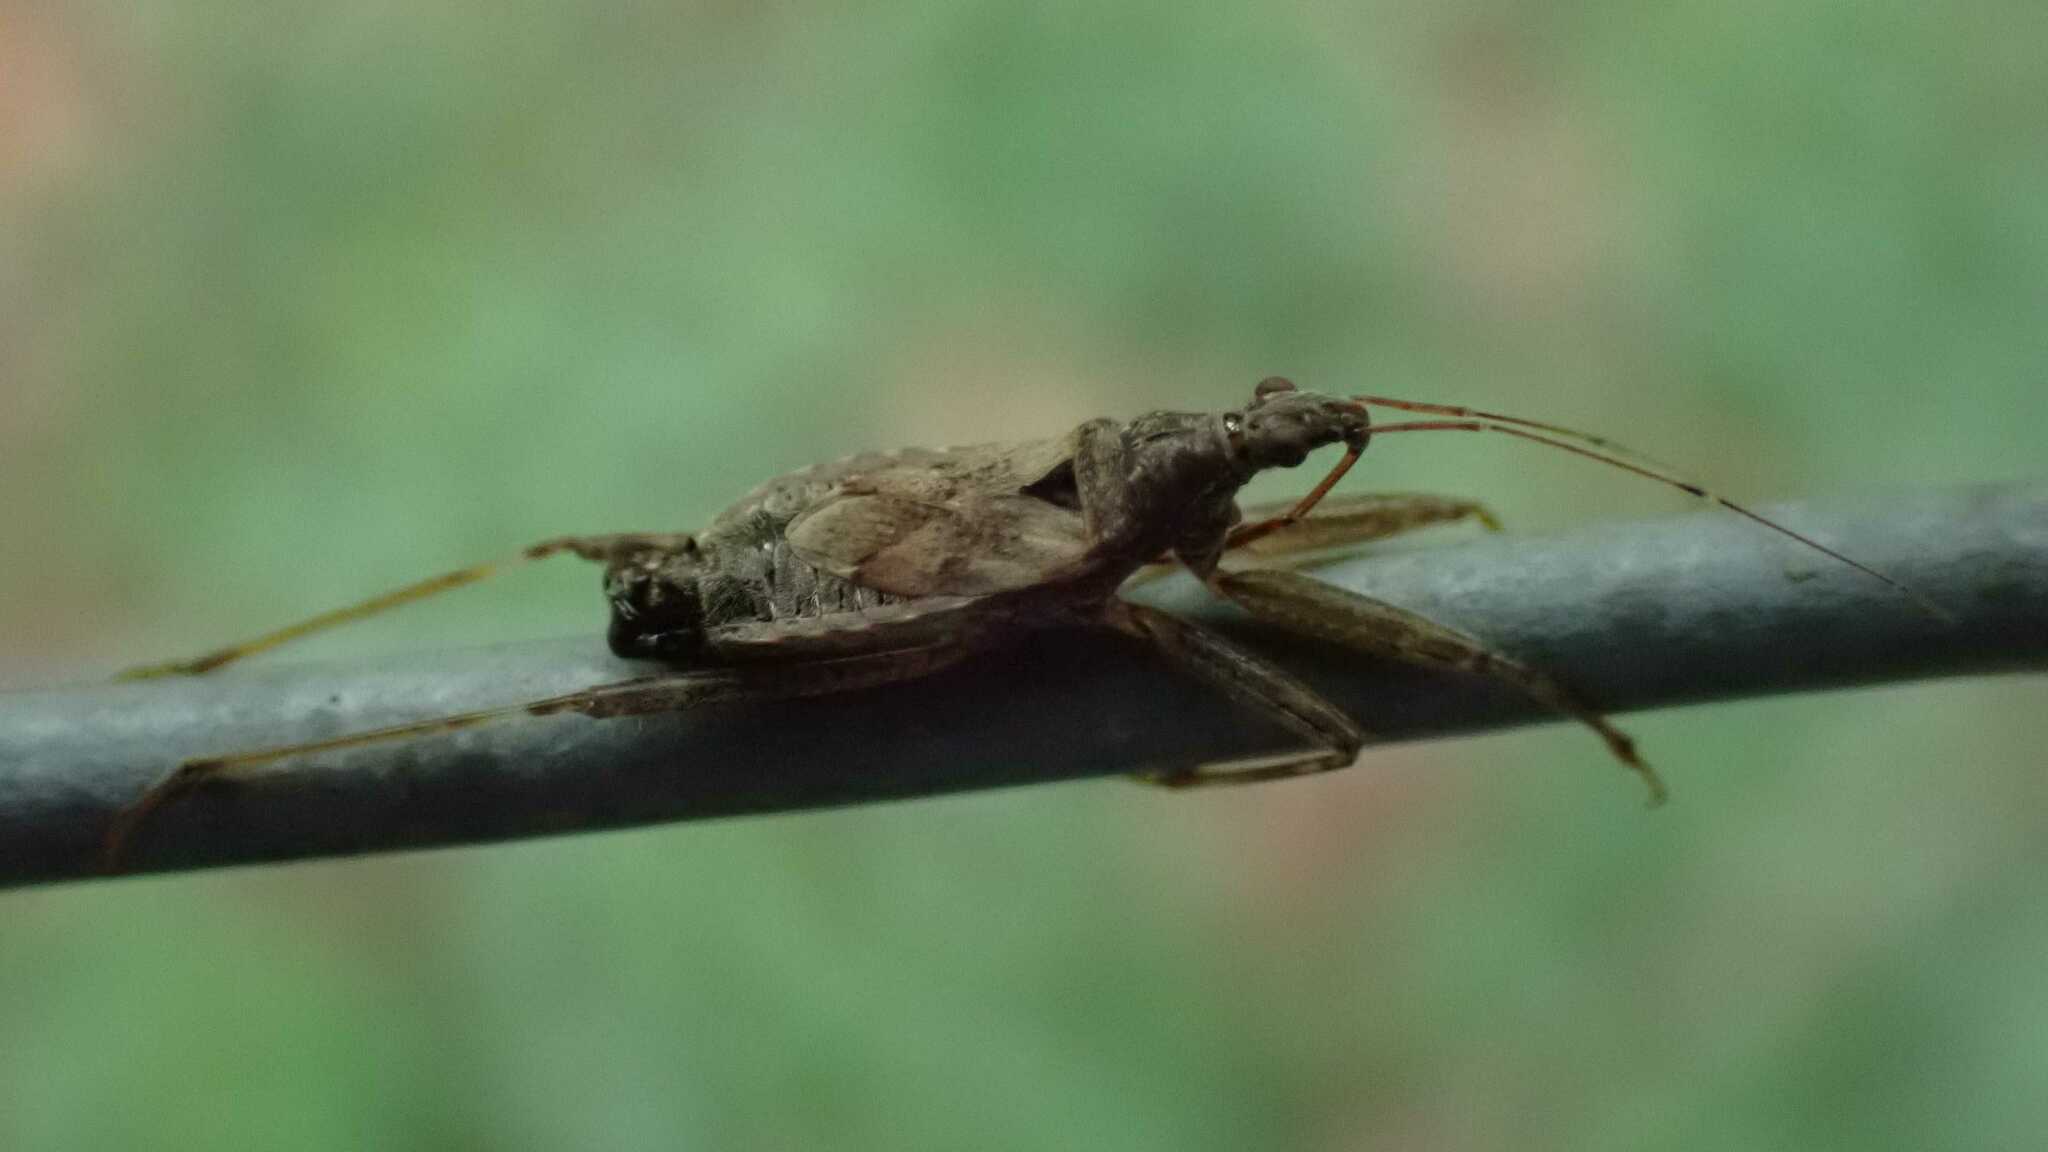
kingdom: Animalia
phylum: Arthropoda
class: Insecta
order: Hemiptera
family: Nabidae
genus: Himacerus
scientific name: Himacerus apterus
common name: Tree damsel bug
